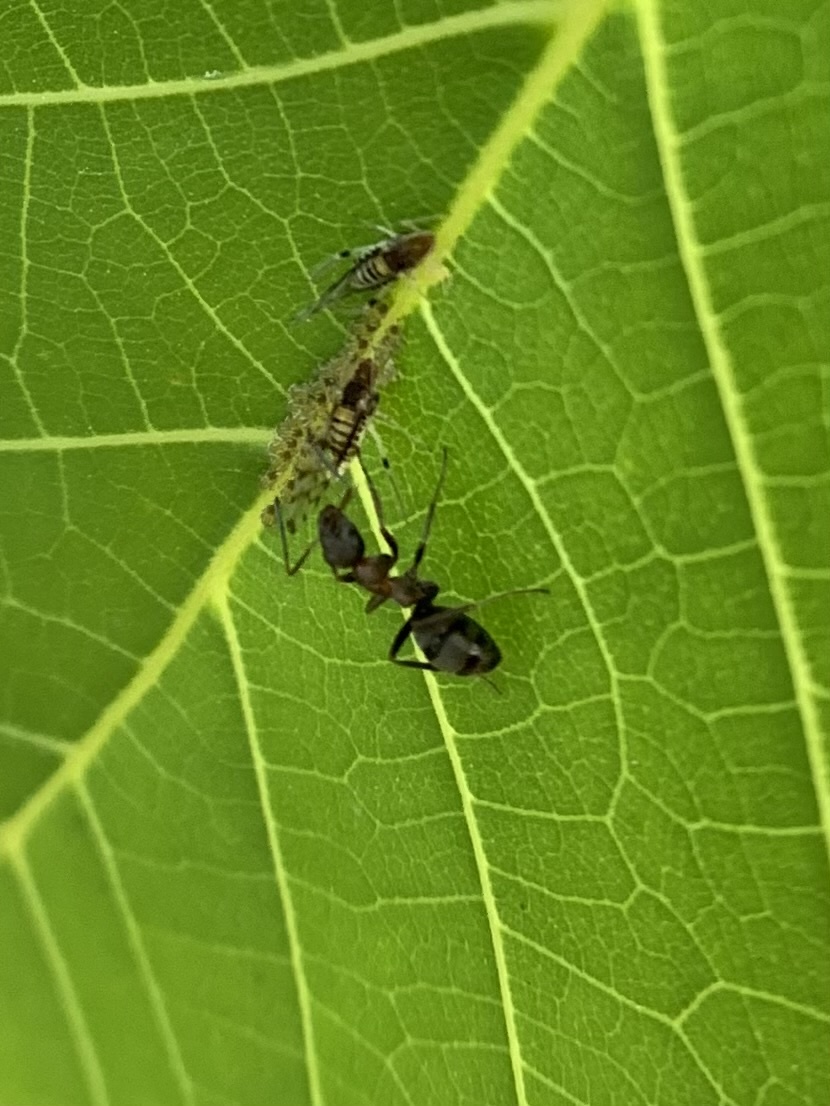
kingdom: Animalia
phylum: Arthropoda
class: Insecta
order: Hemiptera
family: Aphididae
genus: Panaphis
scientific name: Panaphis juglandis
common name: Large walnut aphid
